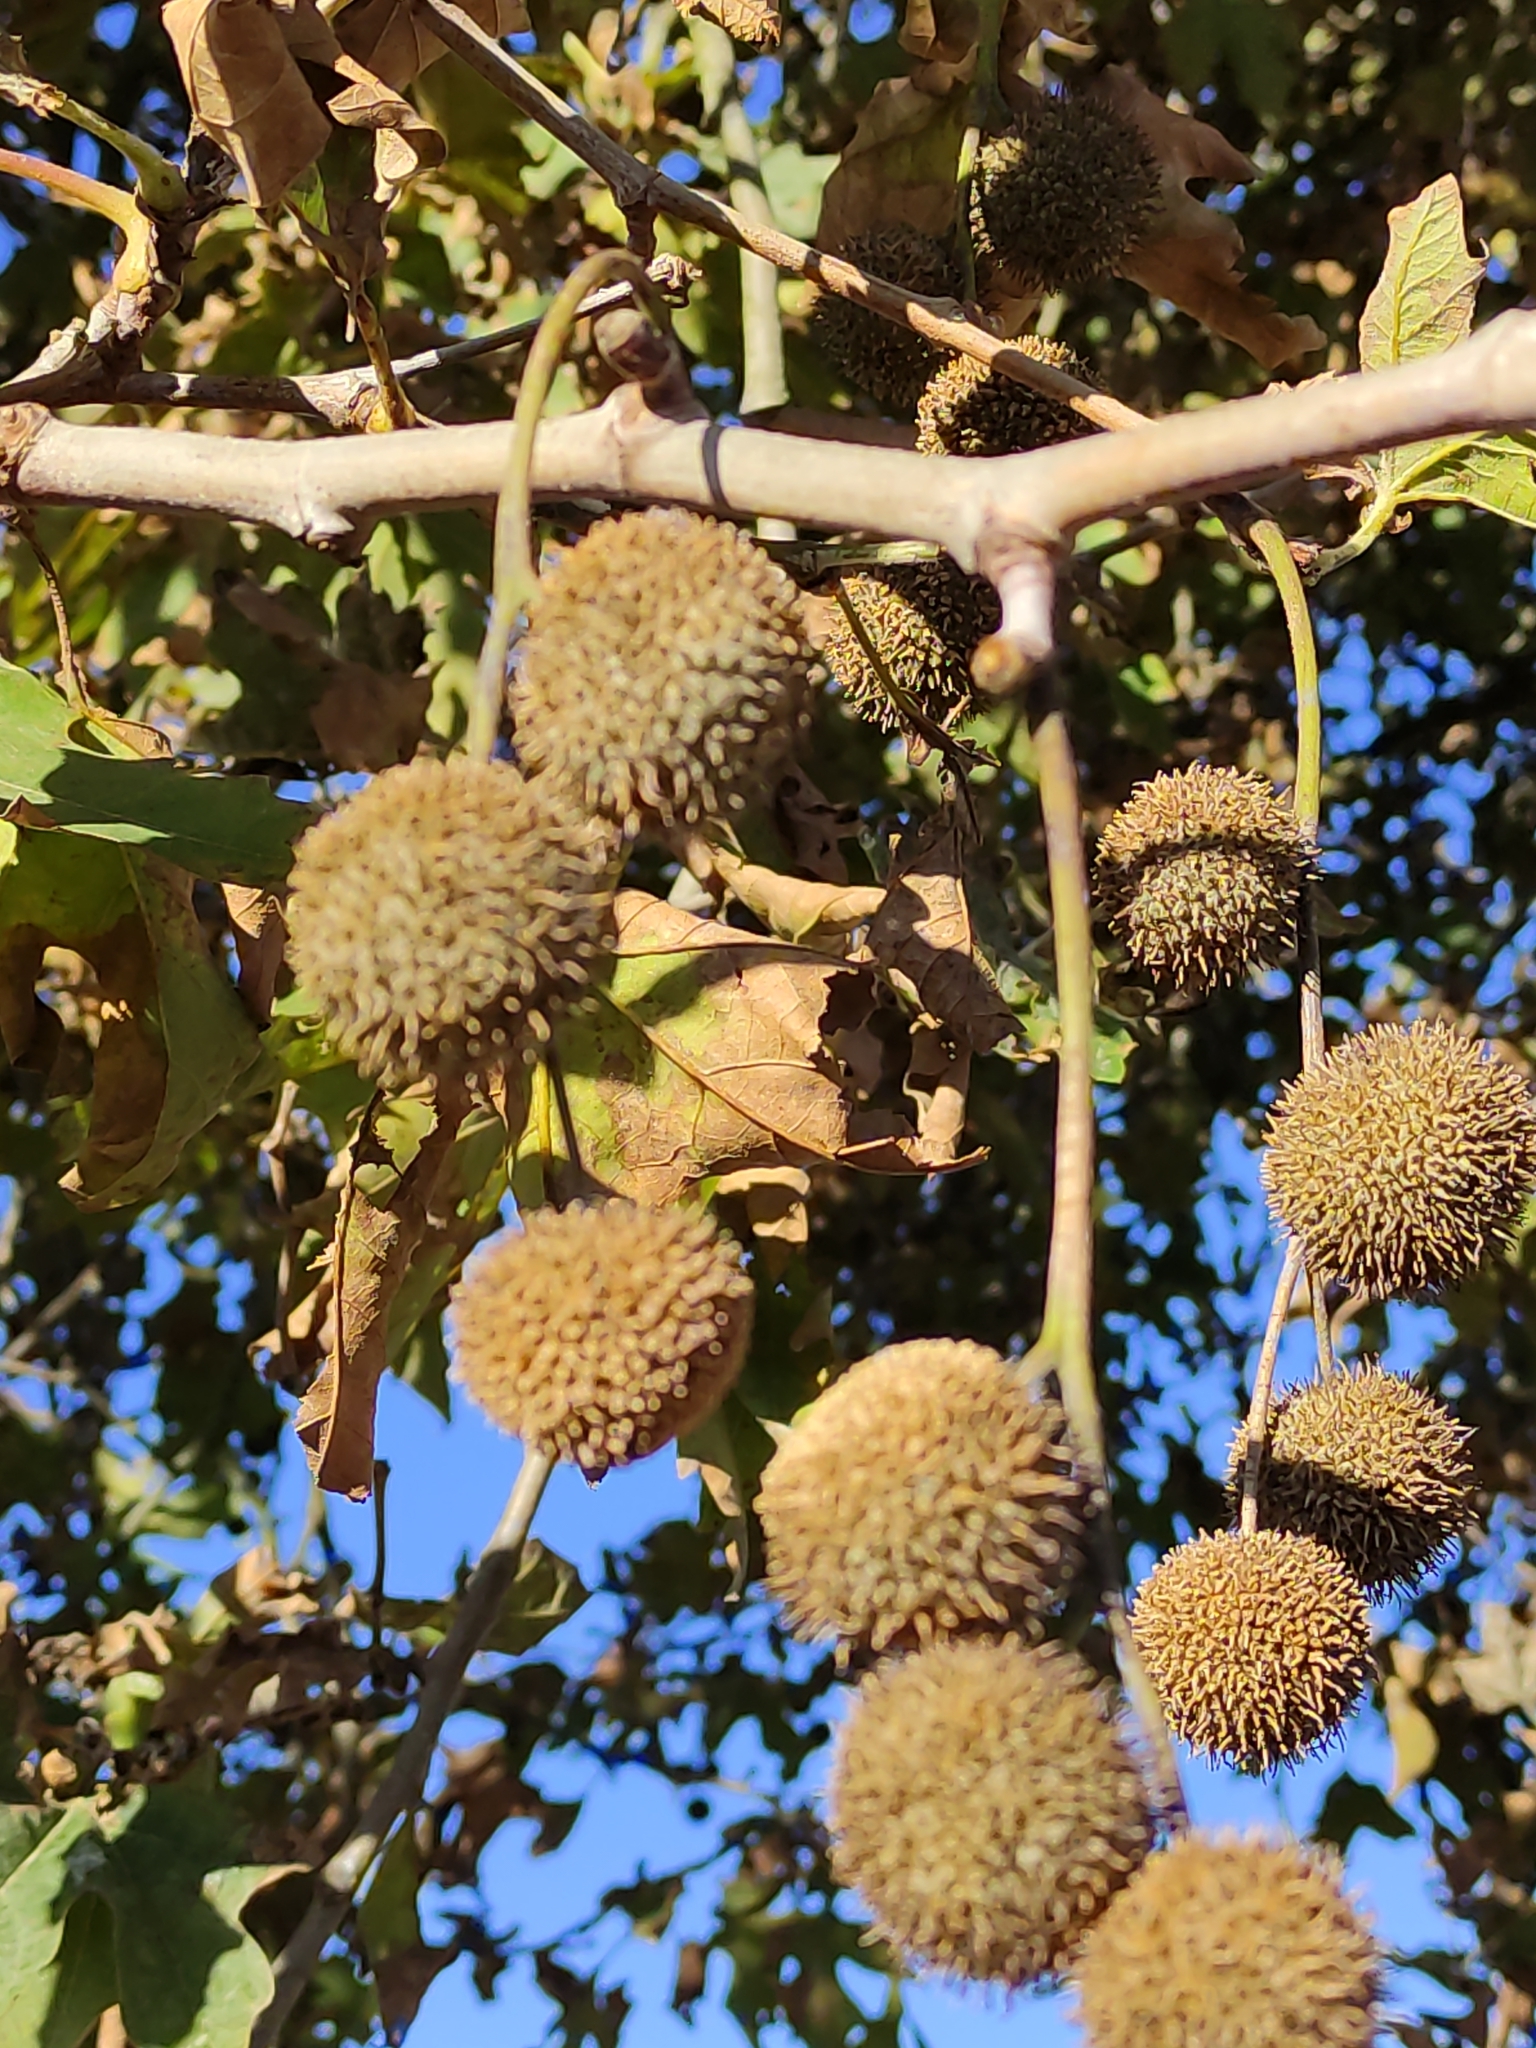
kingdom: Plantae
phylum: Tracheophyta
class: Magnoliopsida
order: Proteales
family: Platanaceae
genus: Platanus
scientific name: Platanus hispanica
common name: London plane
